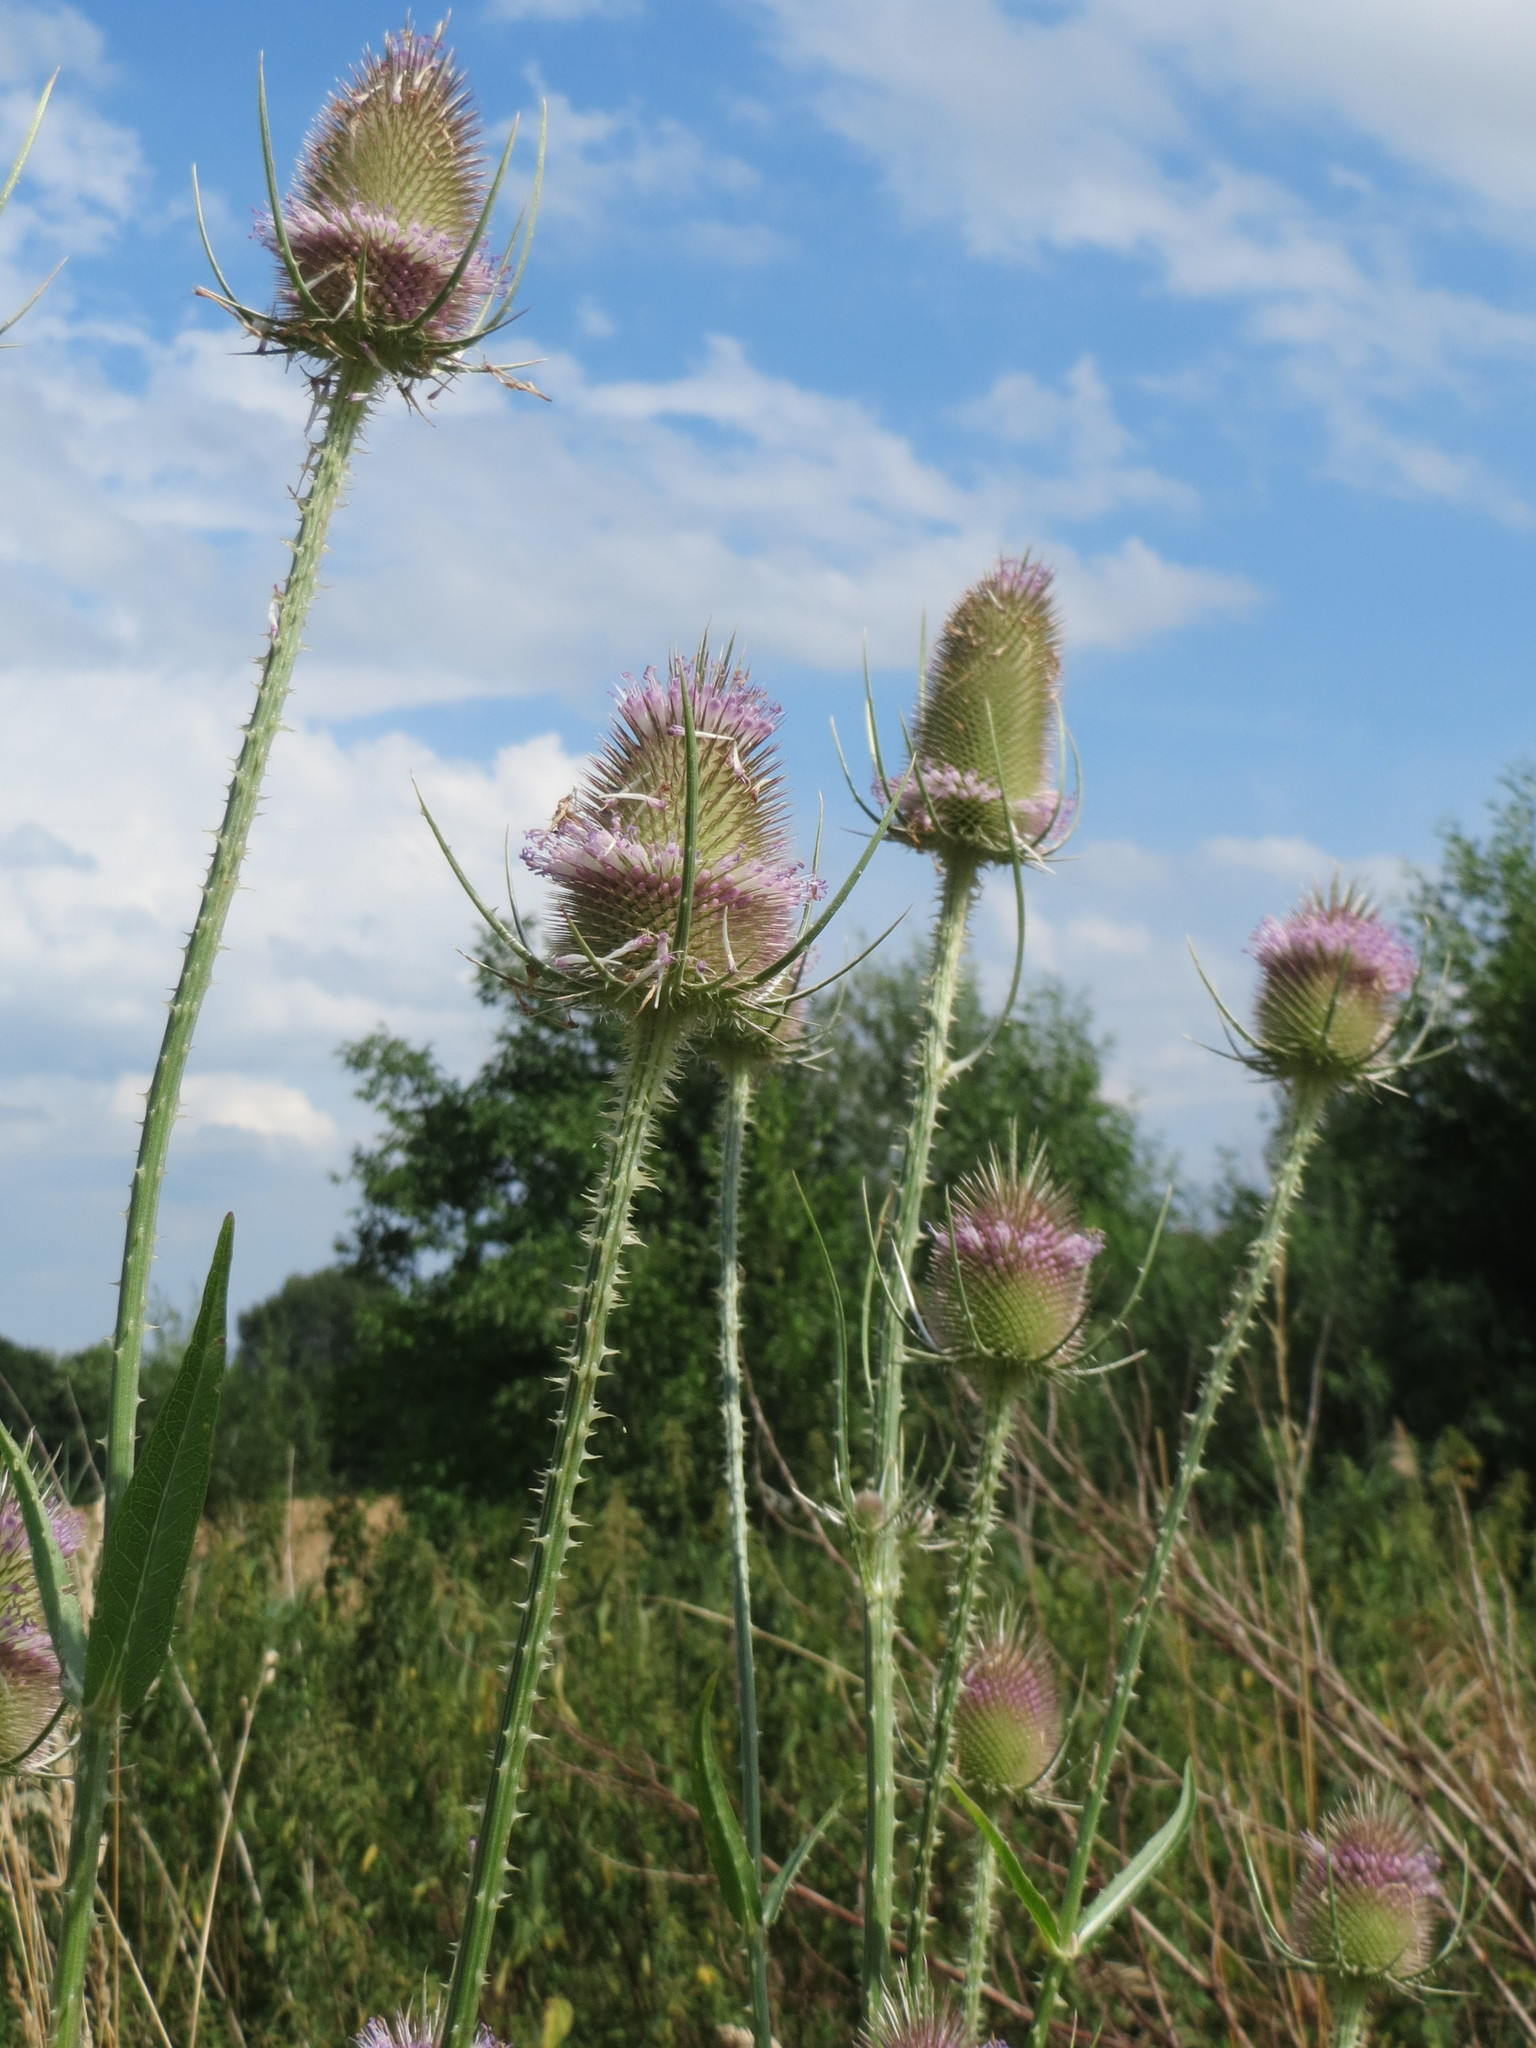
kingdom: Plantae
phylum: Tracheophyta
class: Magnoliopsida
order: Dipsacales
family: Caprifoliaceae
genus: Dipsacus
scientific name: Dipsacus fullonum
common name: Teasel
